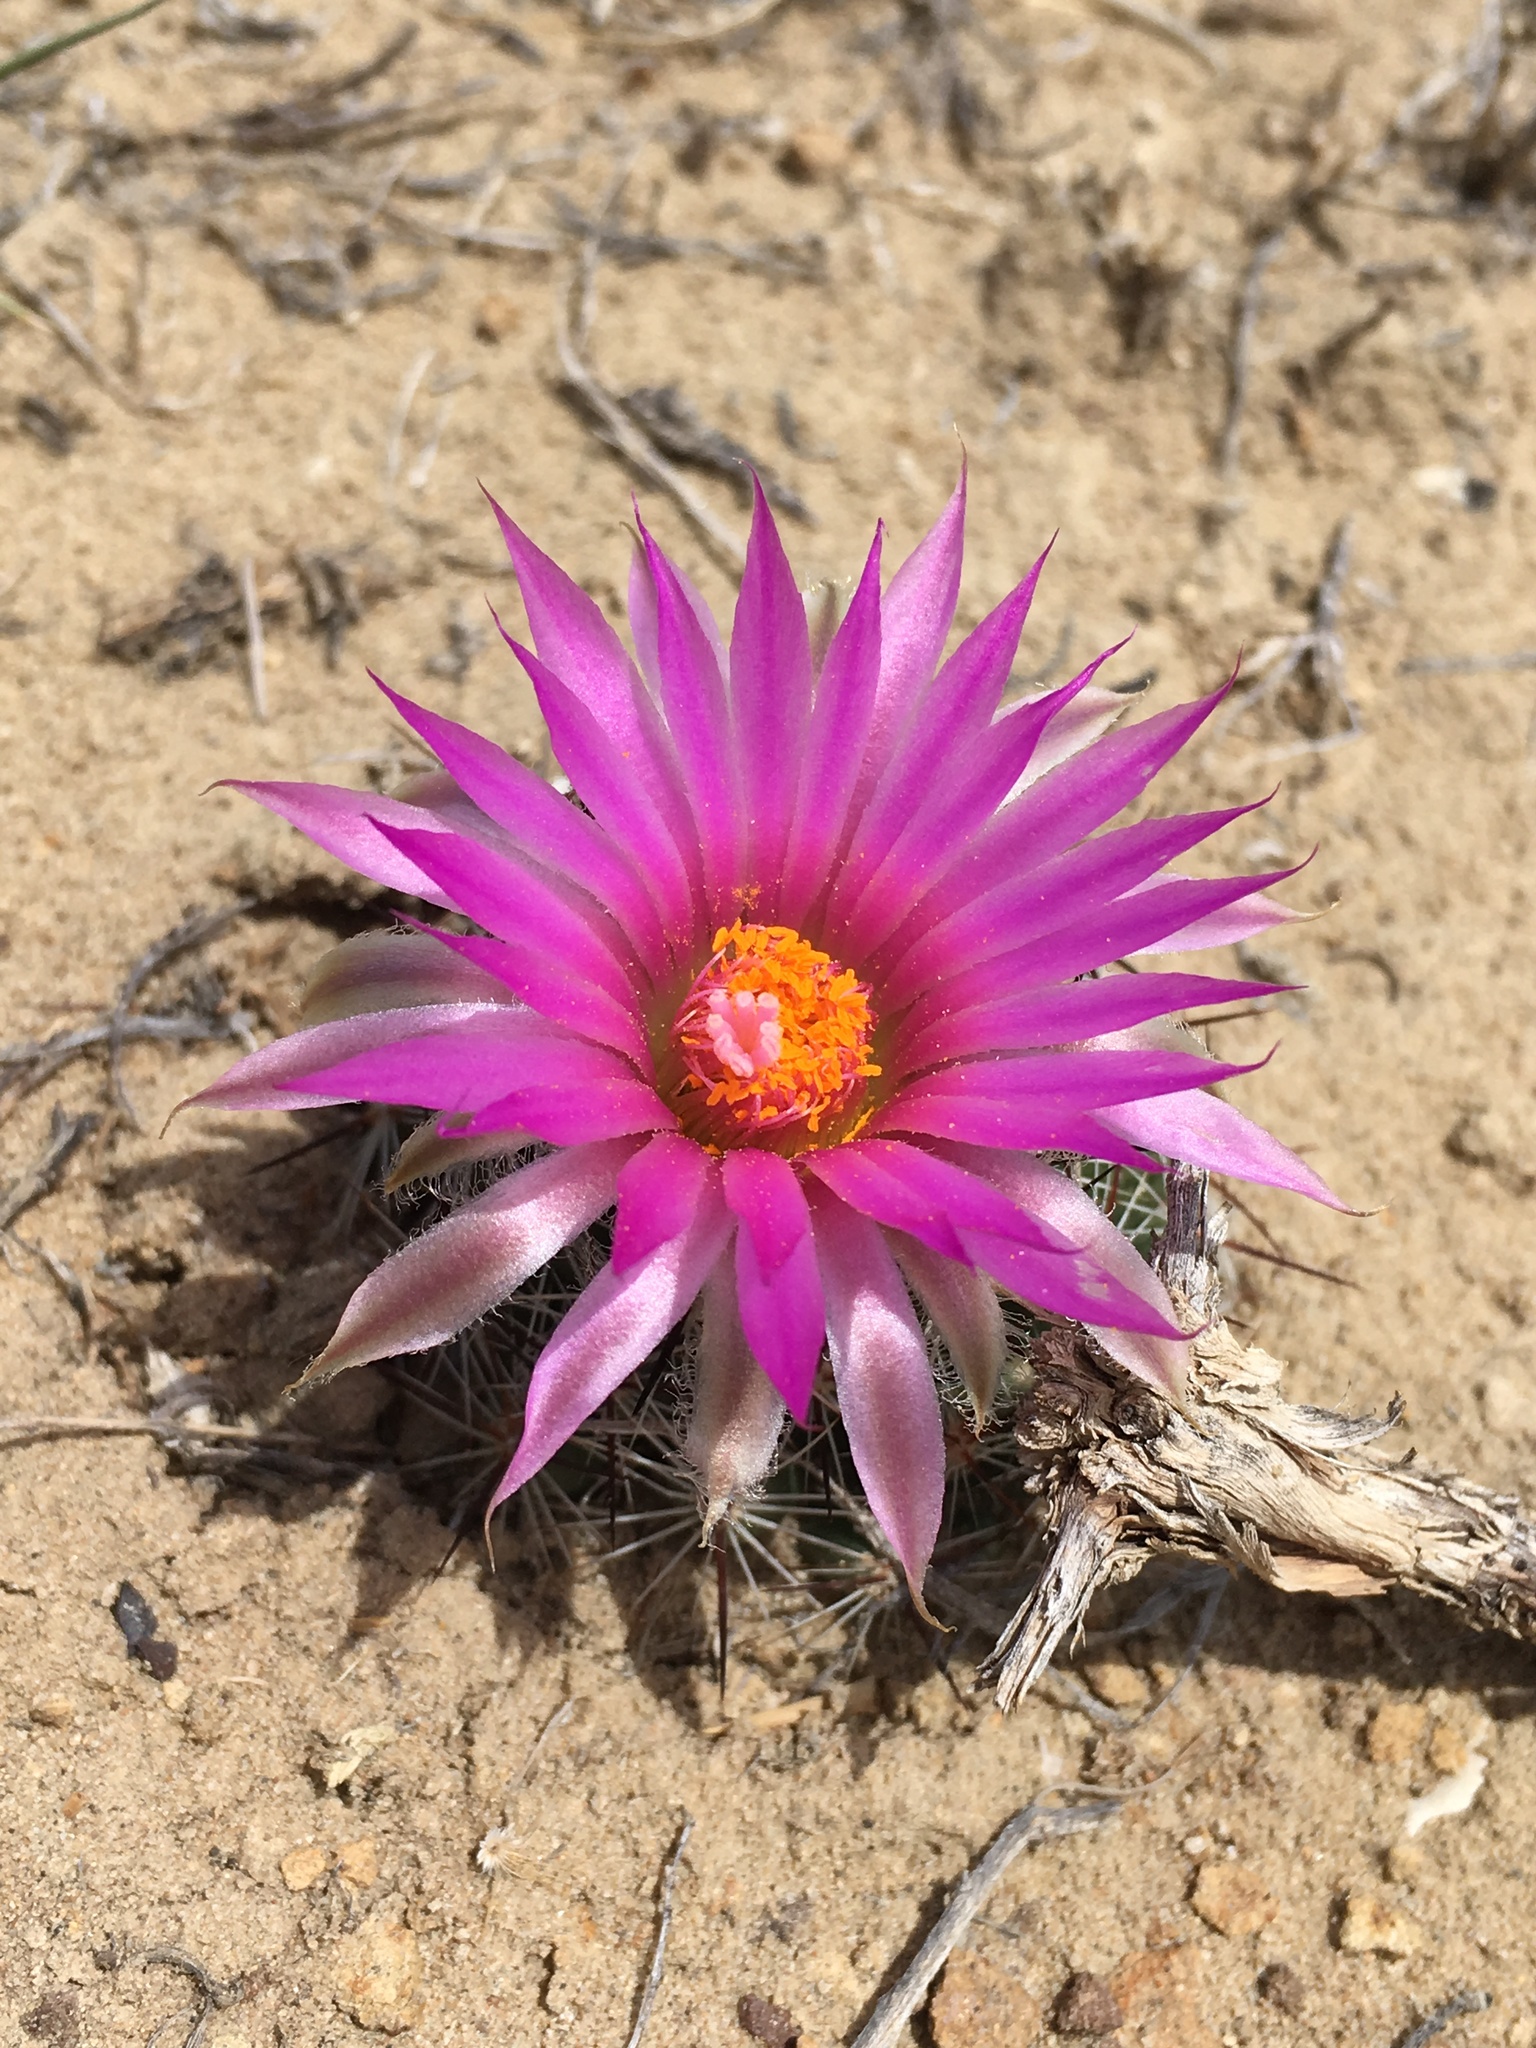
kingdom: Plantae
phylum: Tracheophyta
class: Magnoliopsida
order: Caryophyllales
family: Cactaceae
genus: Pelecyphora
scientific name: Pelecyphora vivipara
